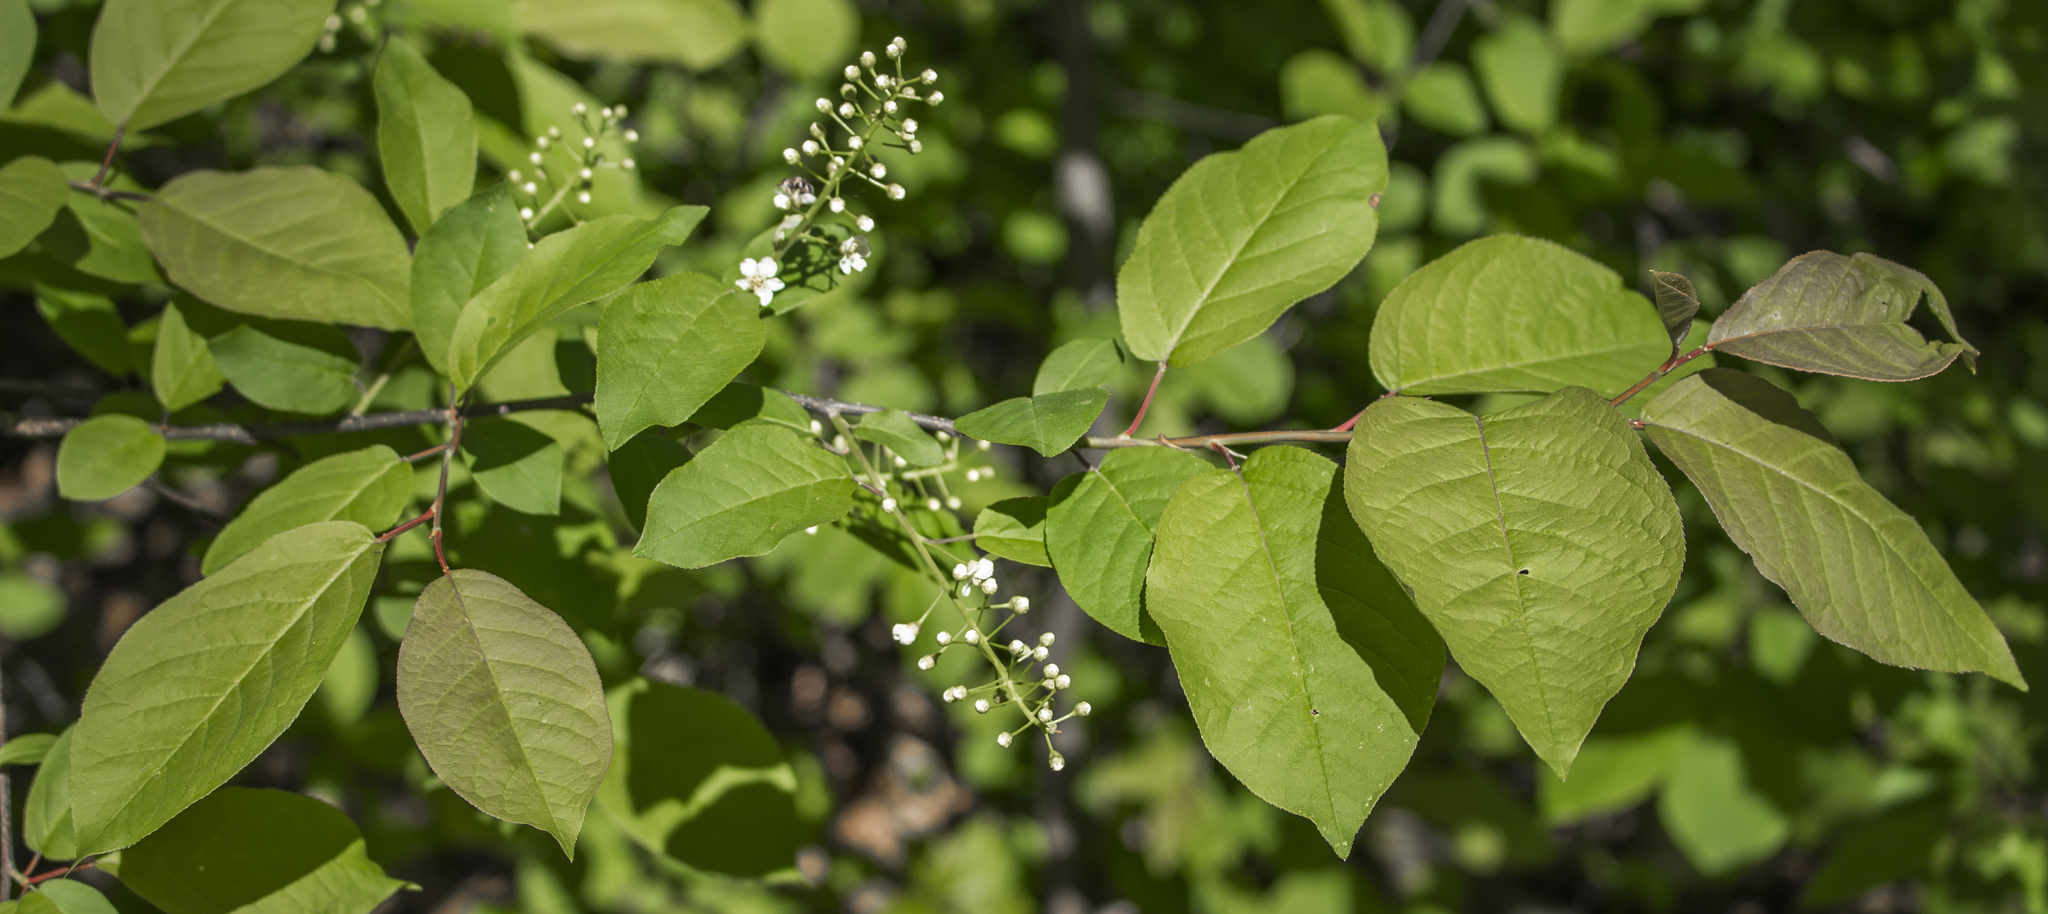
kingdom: Plantae
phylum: Tracheophyta
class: Magnoliopsida
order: Rosales
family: Rosaceae
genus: Prunus
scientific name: Prunus virginiana
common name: Chokecherry
